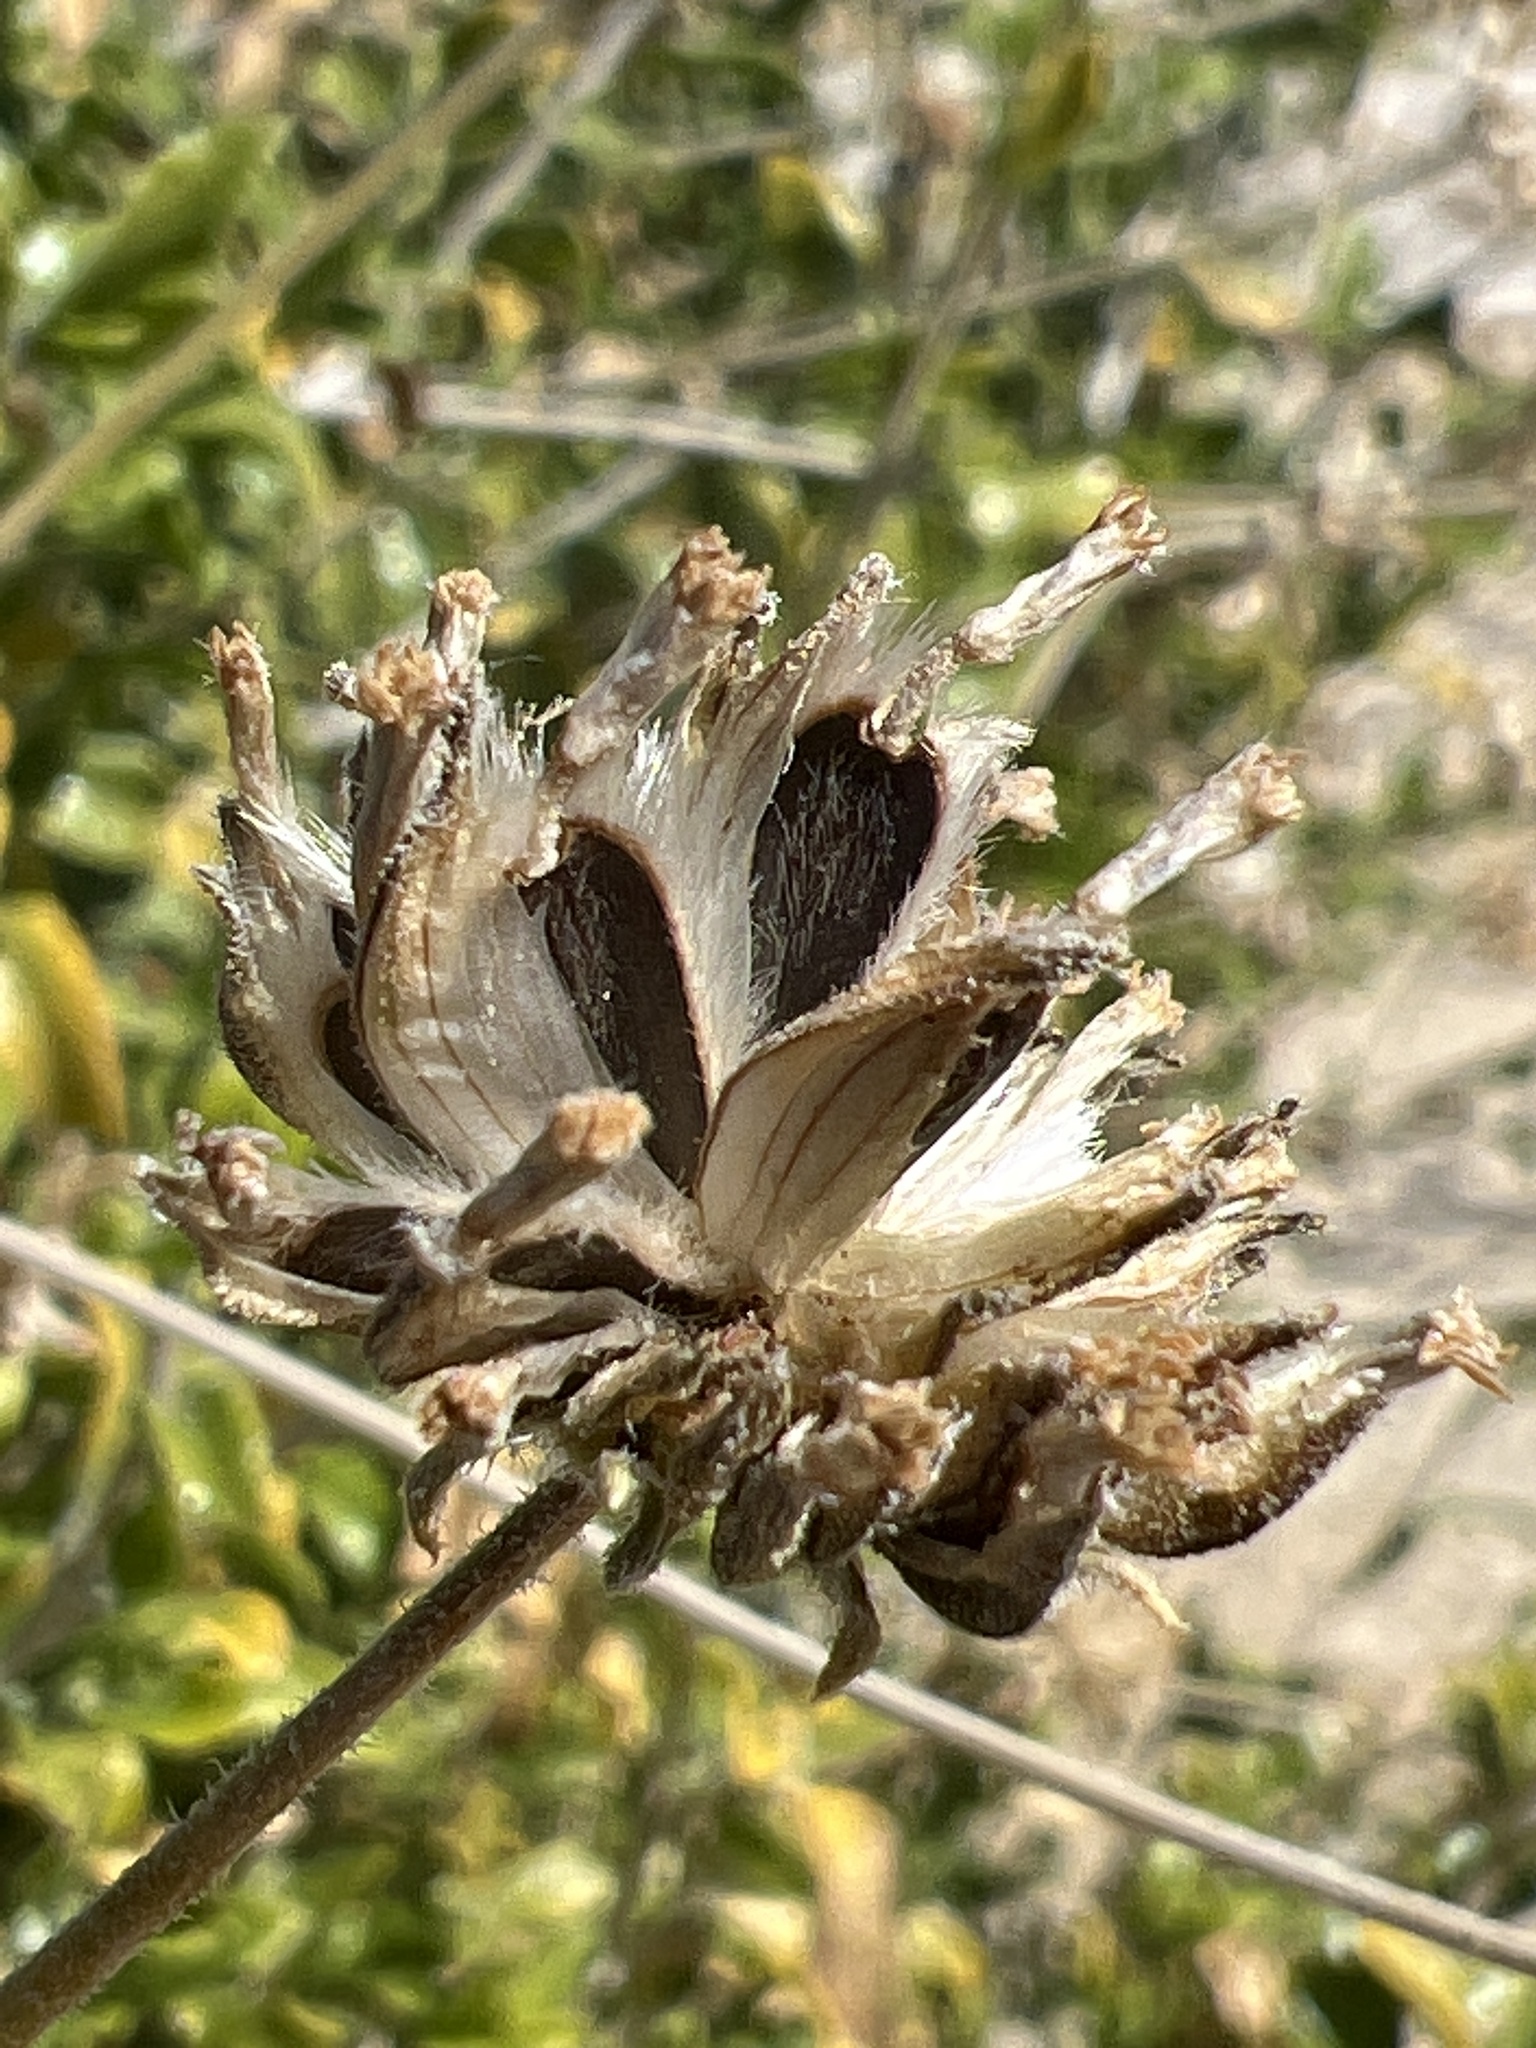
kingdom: Plantae
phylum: Tracheophyta
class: Magnoliopsida
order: Asterales
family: Asteraceae
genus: Encelia
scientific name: Encelia frutescens
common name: Bush encelia
